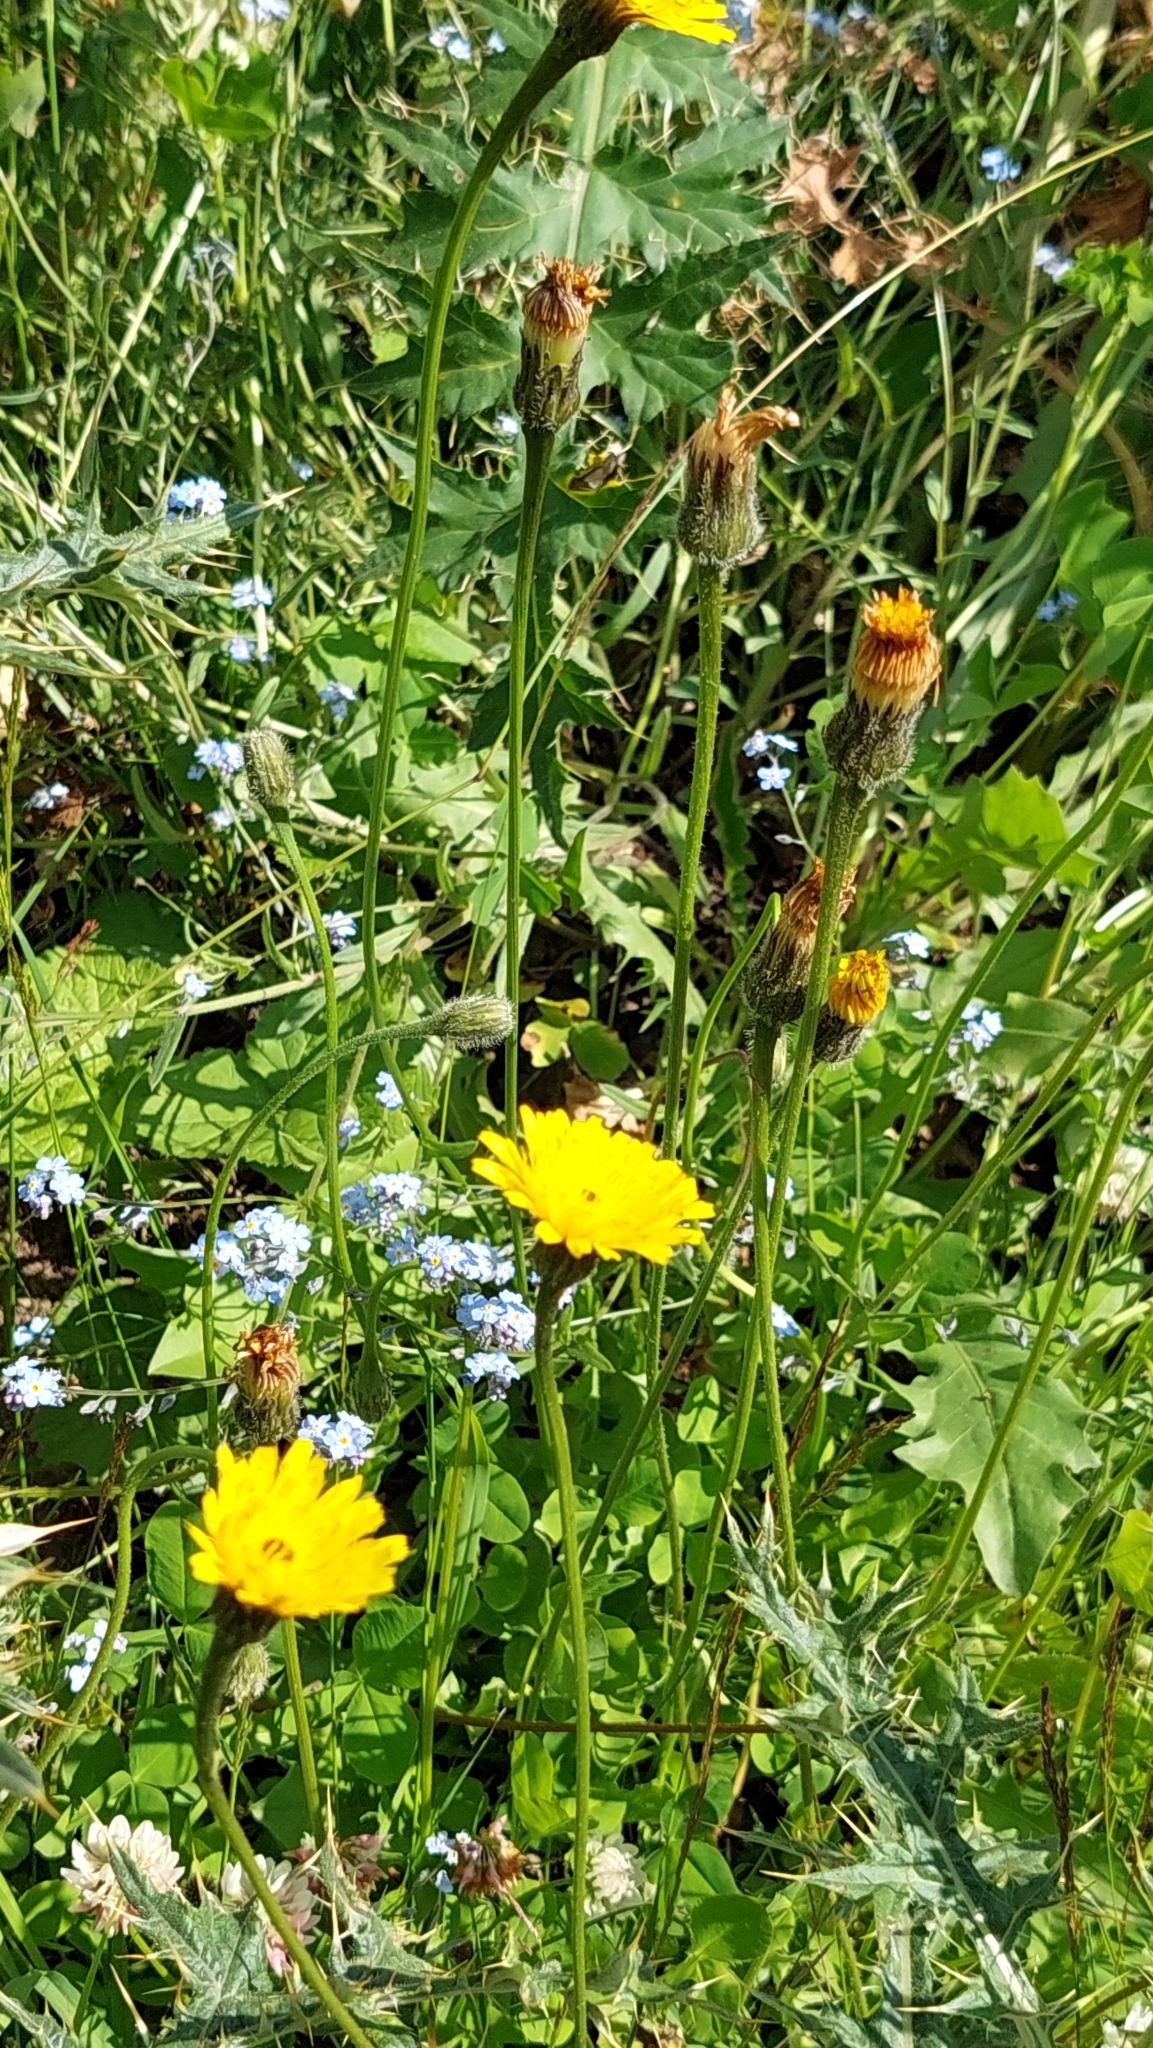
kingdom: Plantae
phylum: Tracheophyta
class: Magnoliopsida
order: Asterales
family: Asteraceae
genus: Leontodon
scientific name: Leontodon caucasicus
